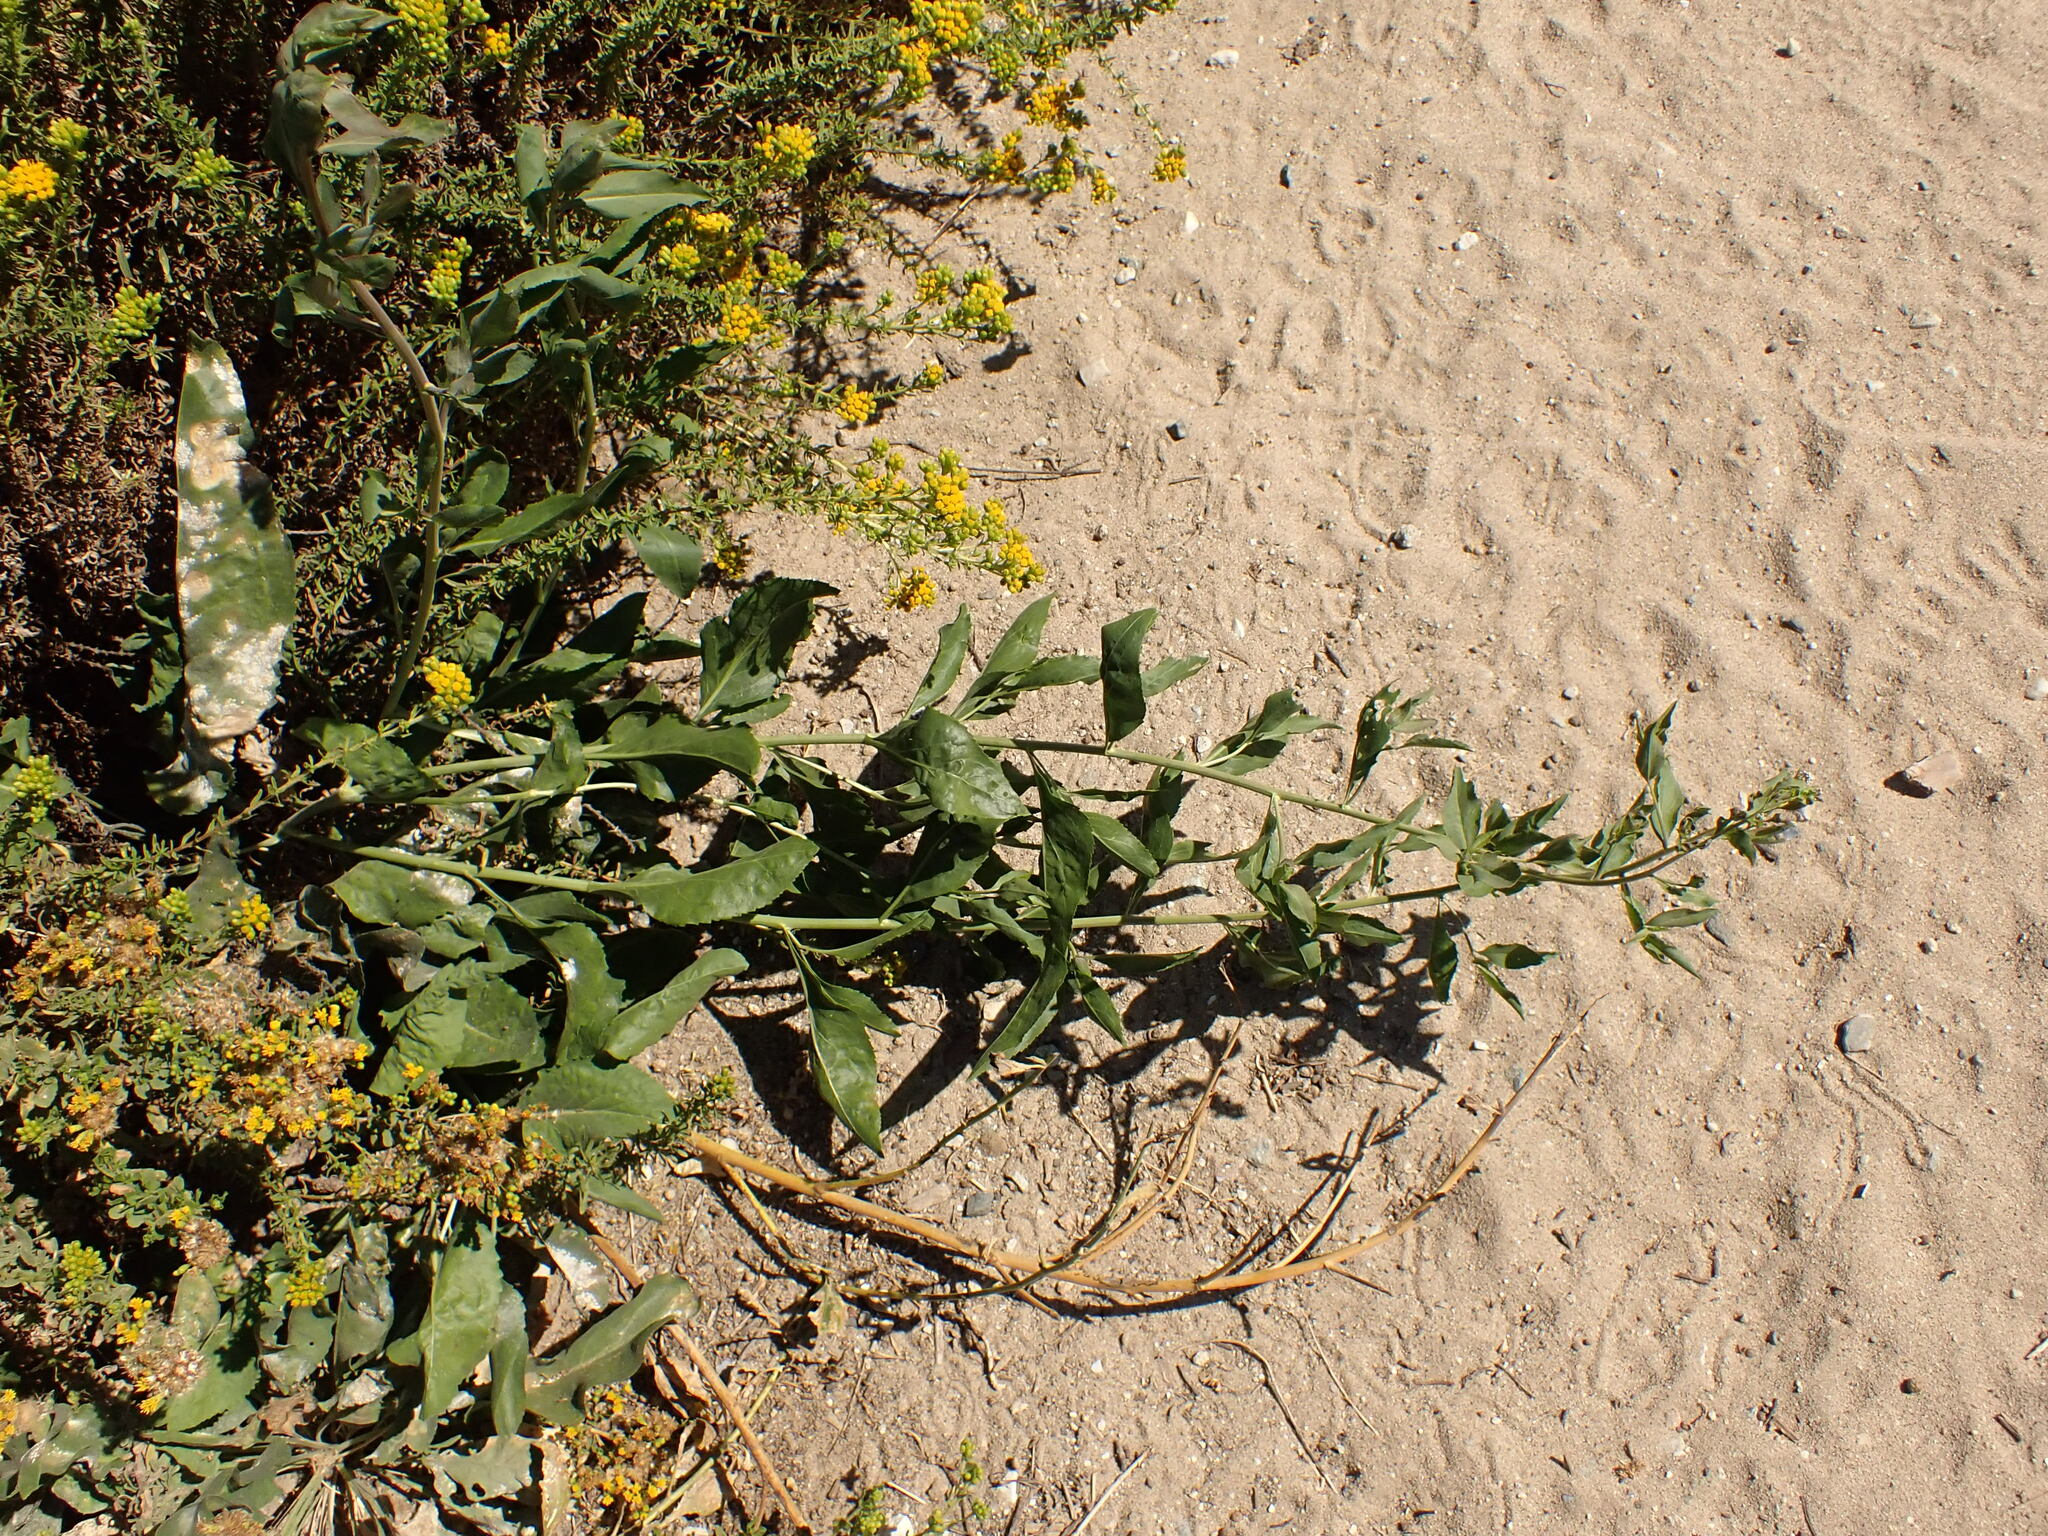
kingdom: Plantae
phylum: Tracheophyta
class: Magnoliopsida
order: Brassicales
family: Brassicaceae
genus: Lepidium
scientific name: Lepidium latifolium
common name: Dittander
